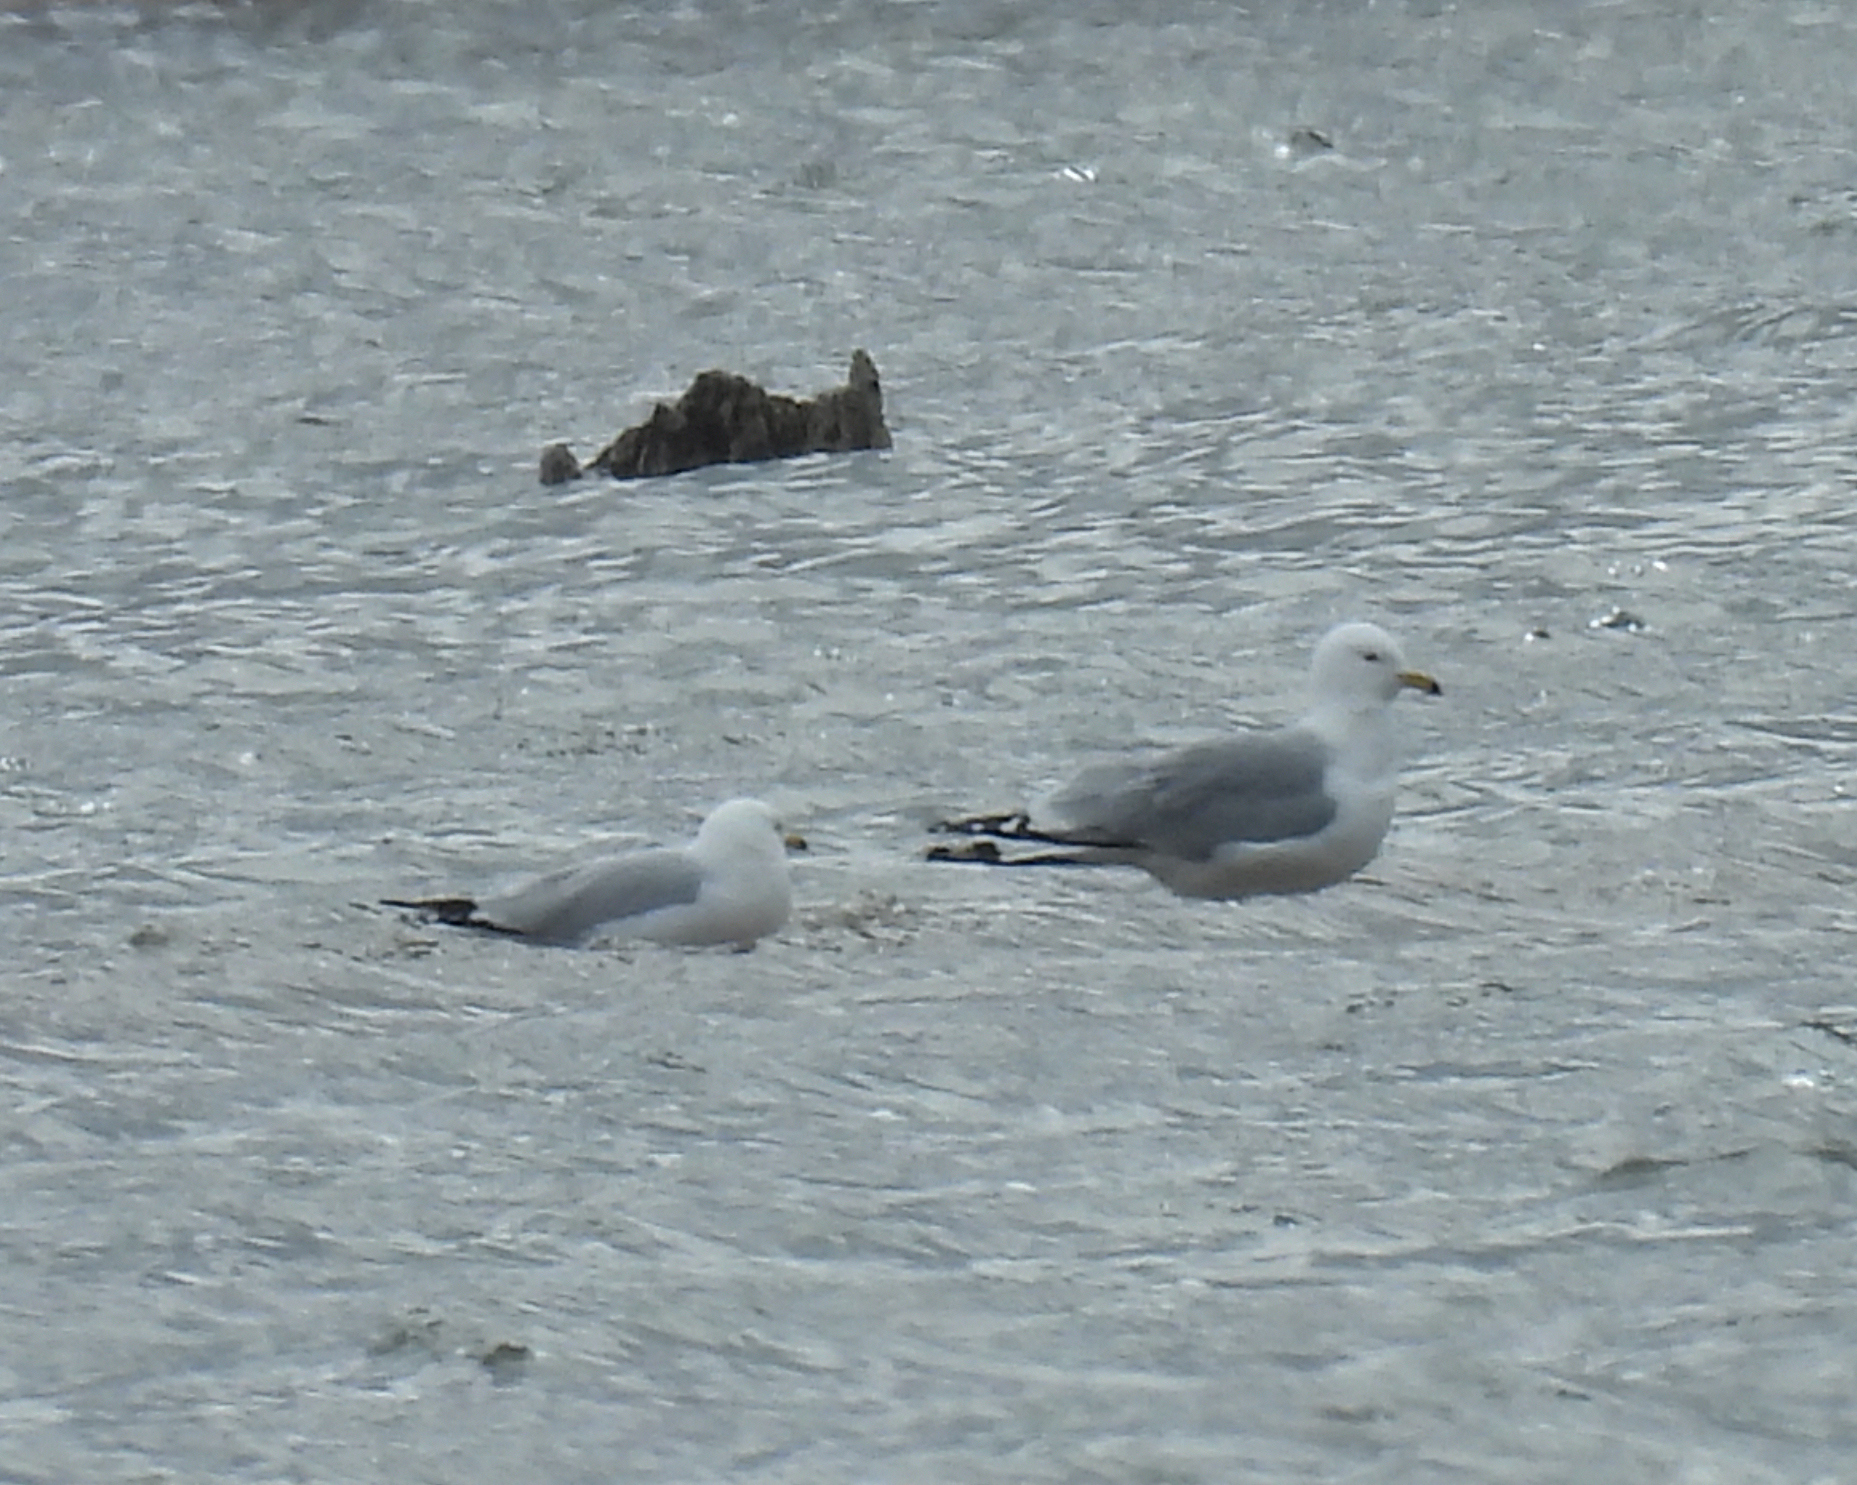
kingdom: Animalia
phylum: Chordata
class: Aves
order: Charadriiformes
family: Laridae
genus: Larus
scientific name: Larus delawarensis
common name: Ring-billed gull
